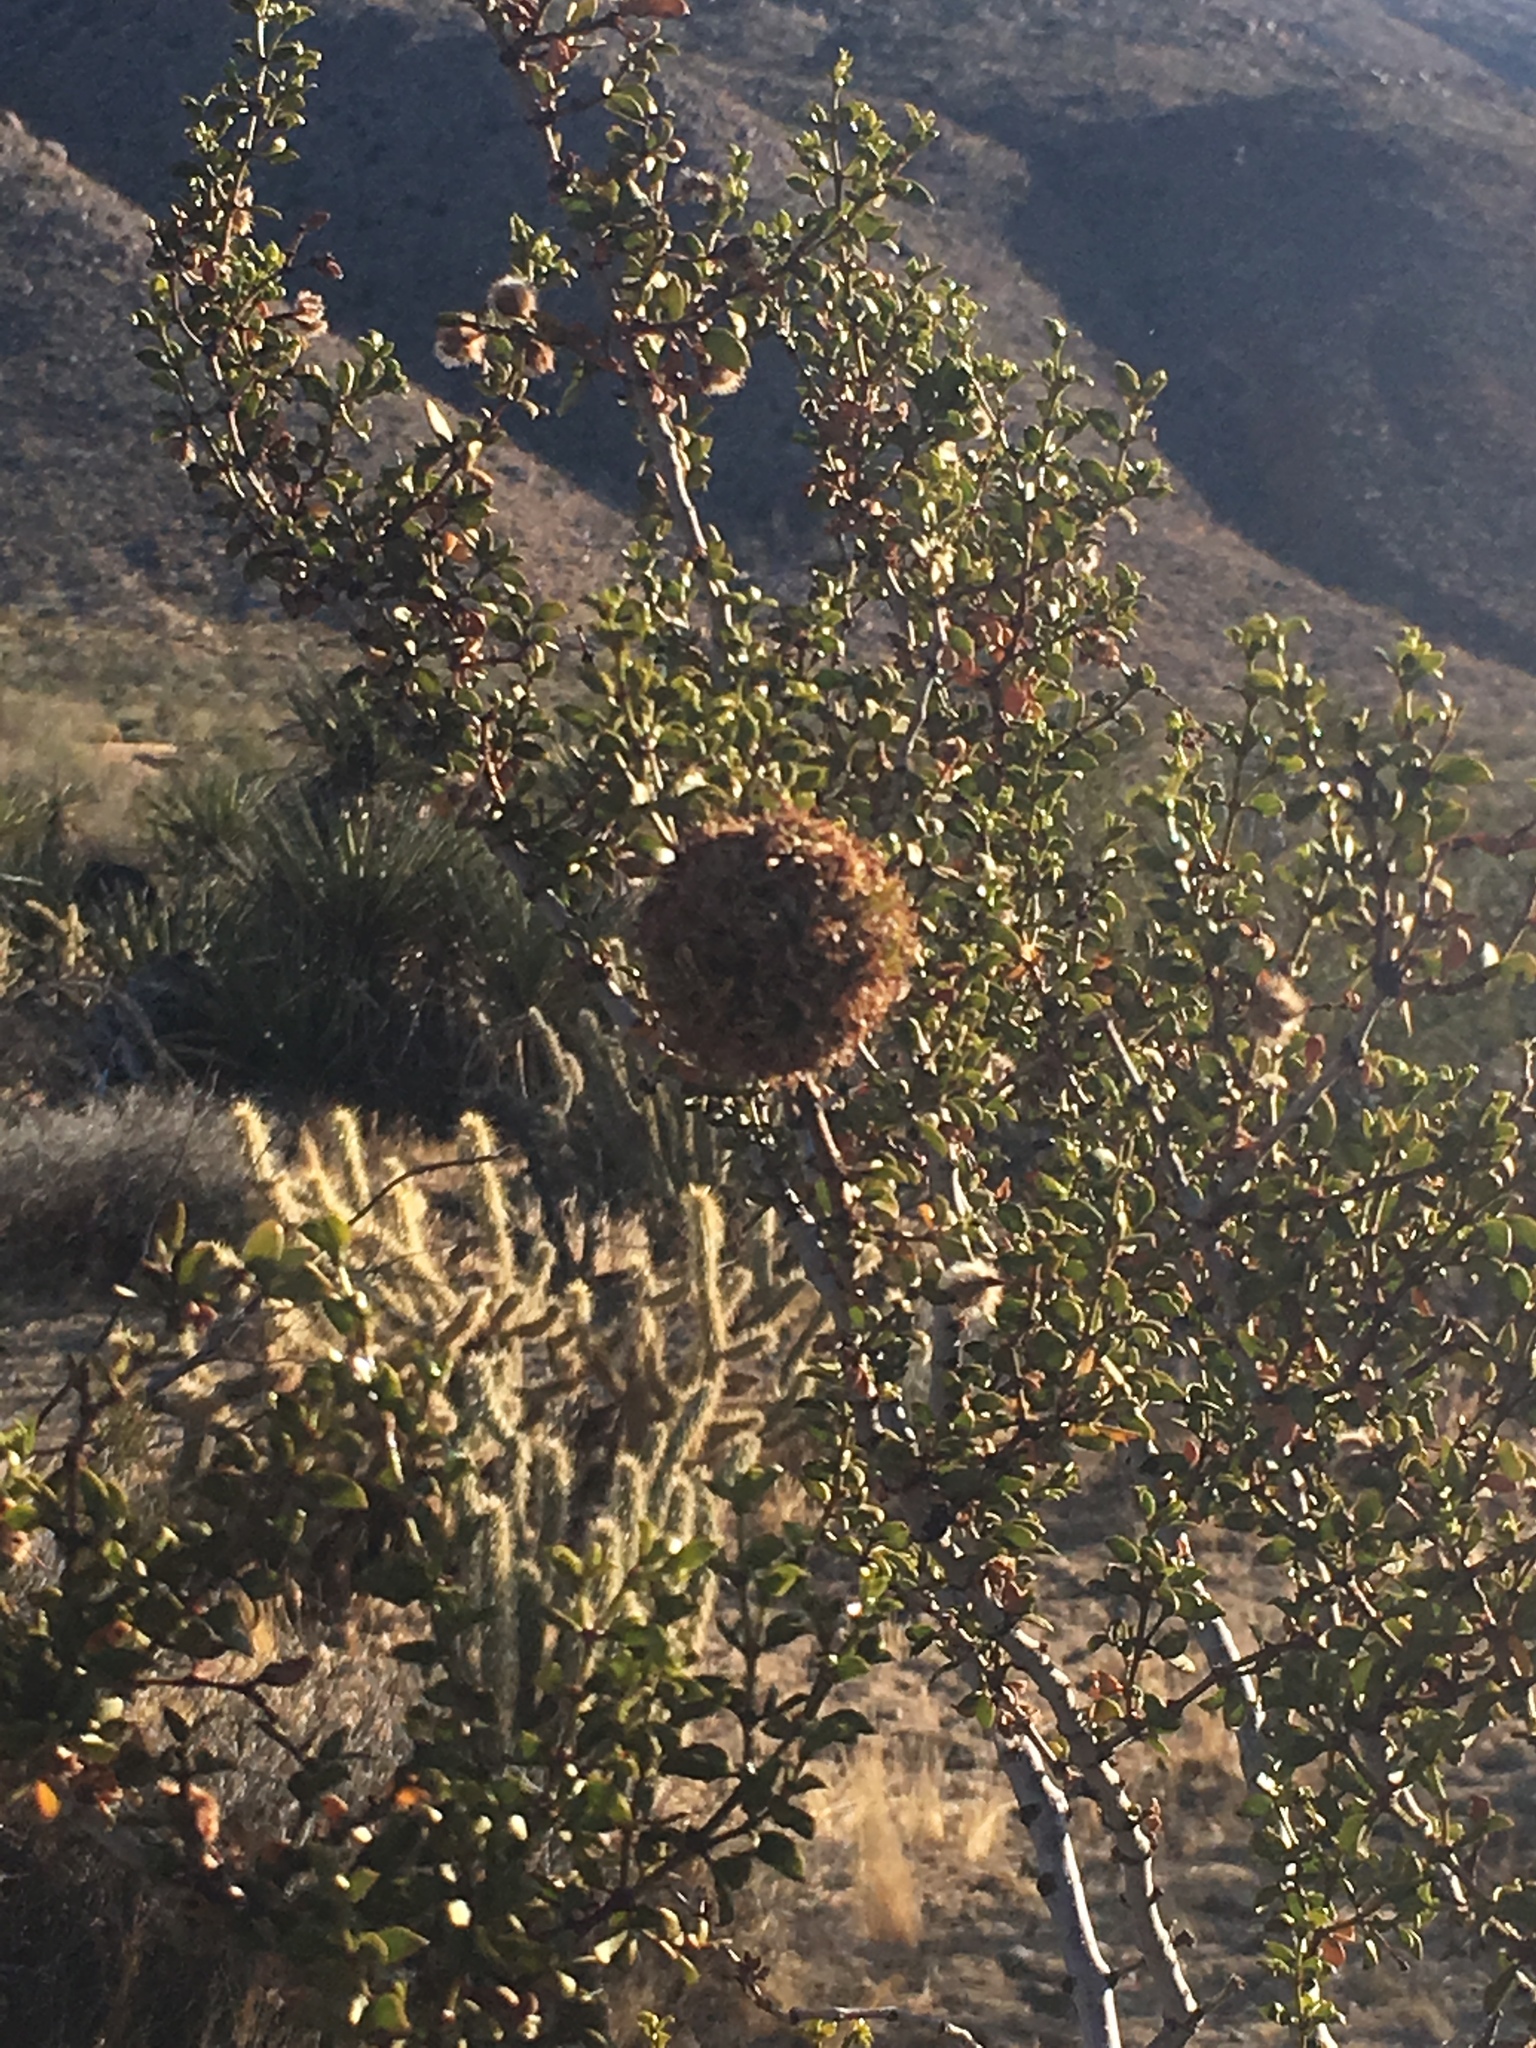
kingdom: Animalia
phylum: Arthropoda
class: Insecta
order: Diptera
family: Cecidomyiidae
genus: Asphondylia
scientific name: Asphondylia auripila
